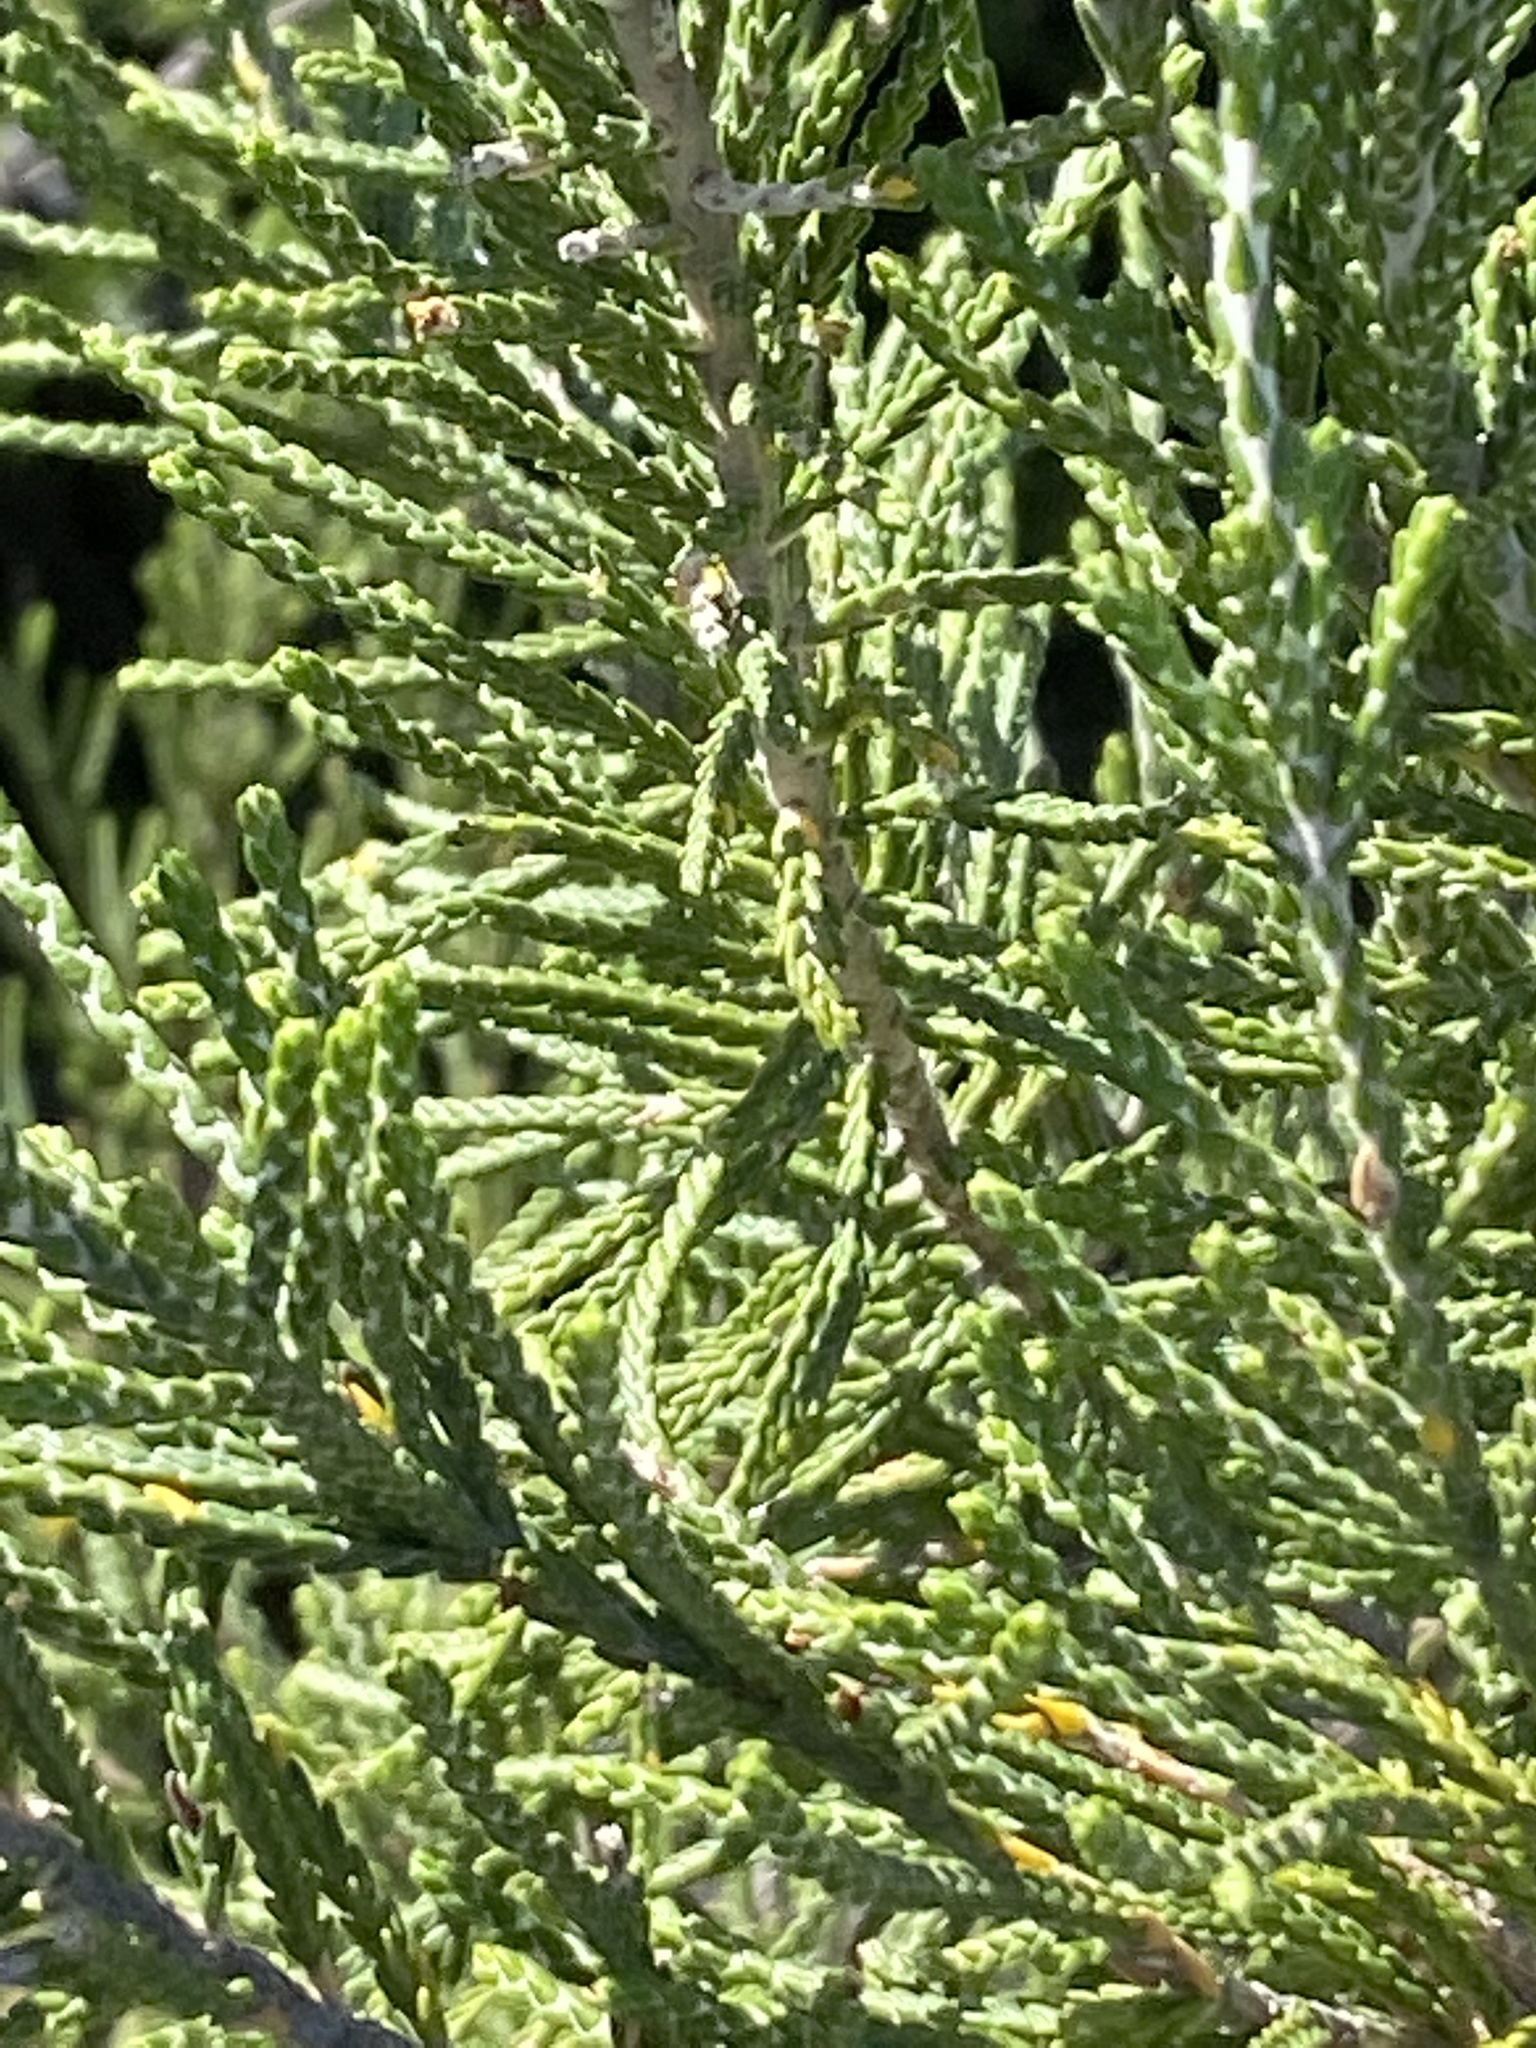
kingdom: Plantae
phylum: Tracheophyta
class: Magnoliopsida
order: Malvales
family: Thymelaeaceae
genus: Passerina
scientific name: Passerina rigida
